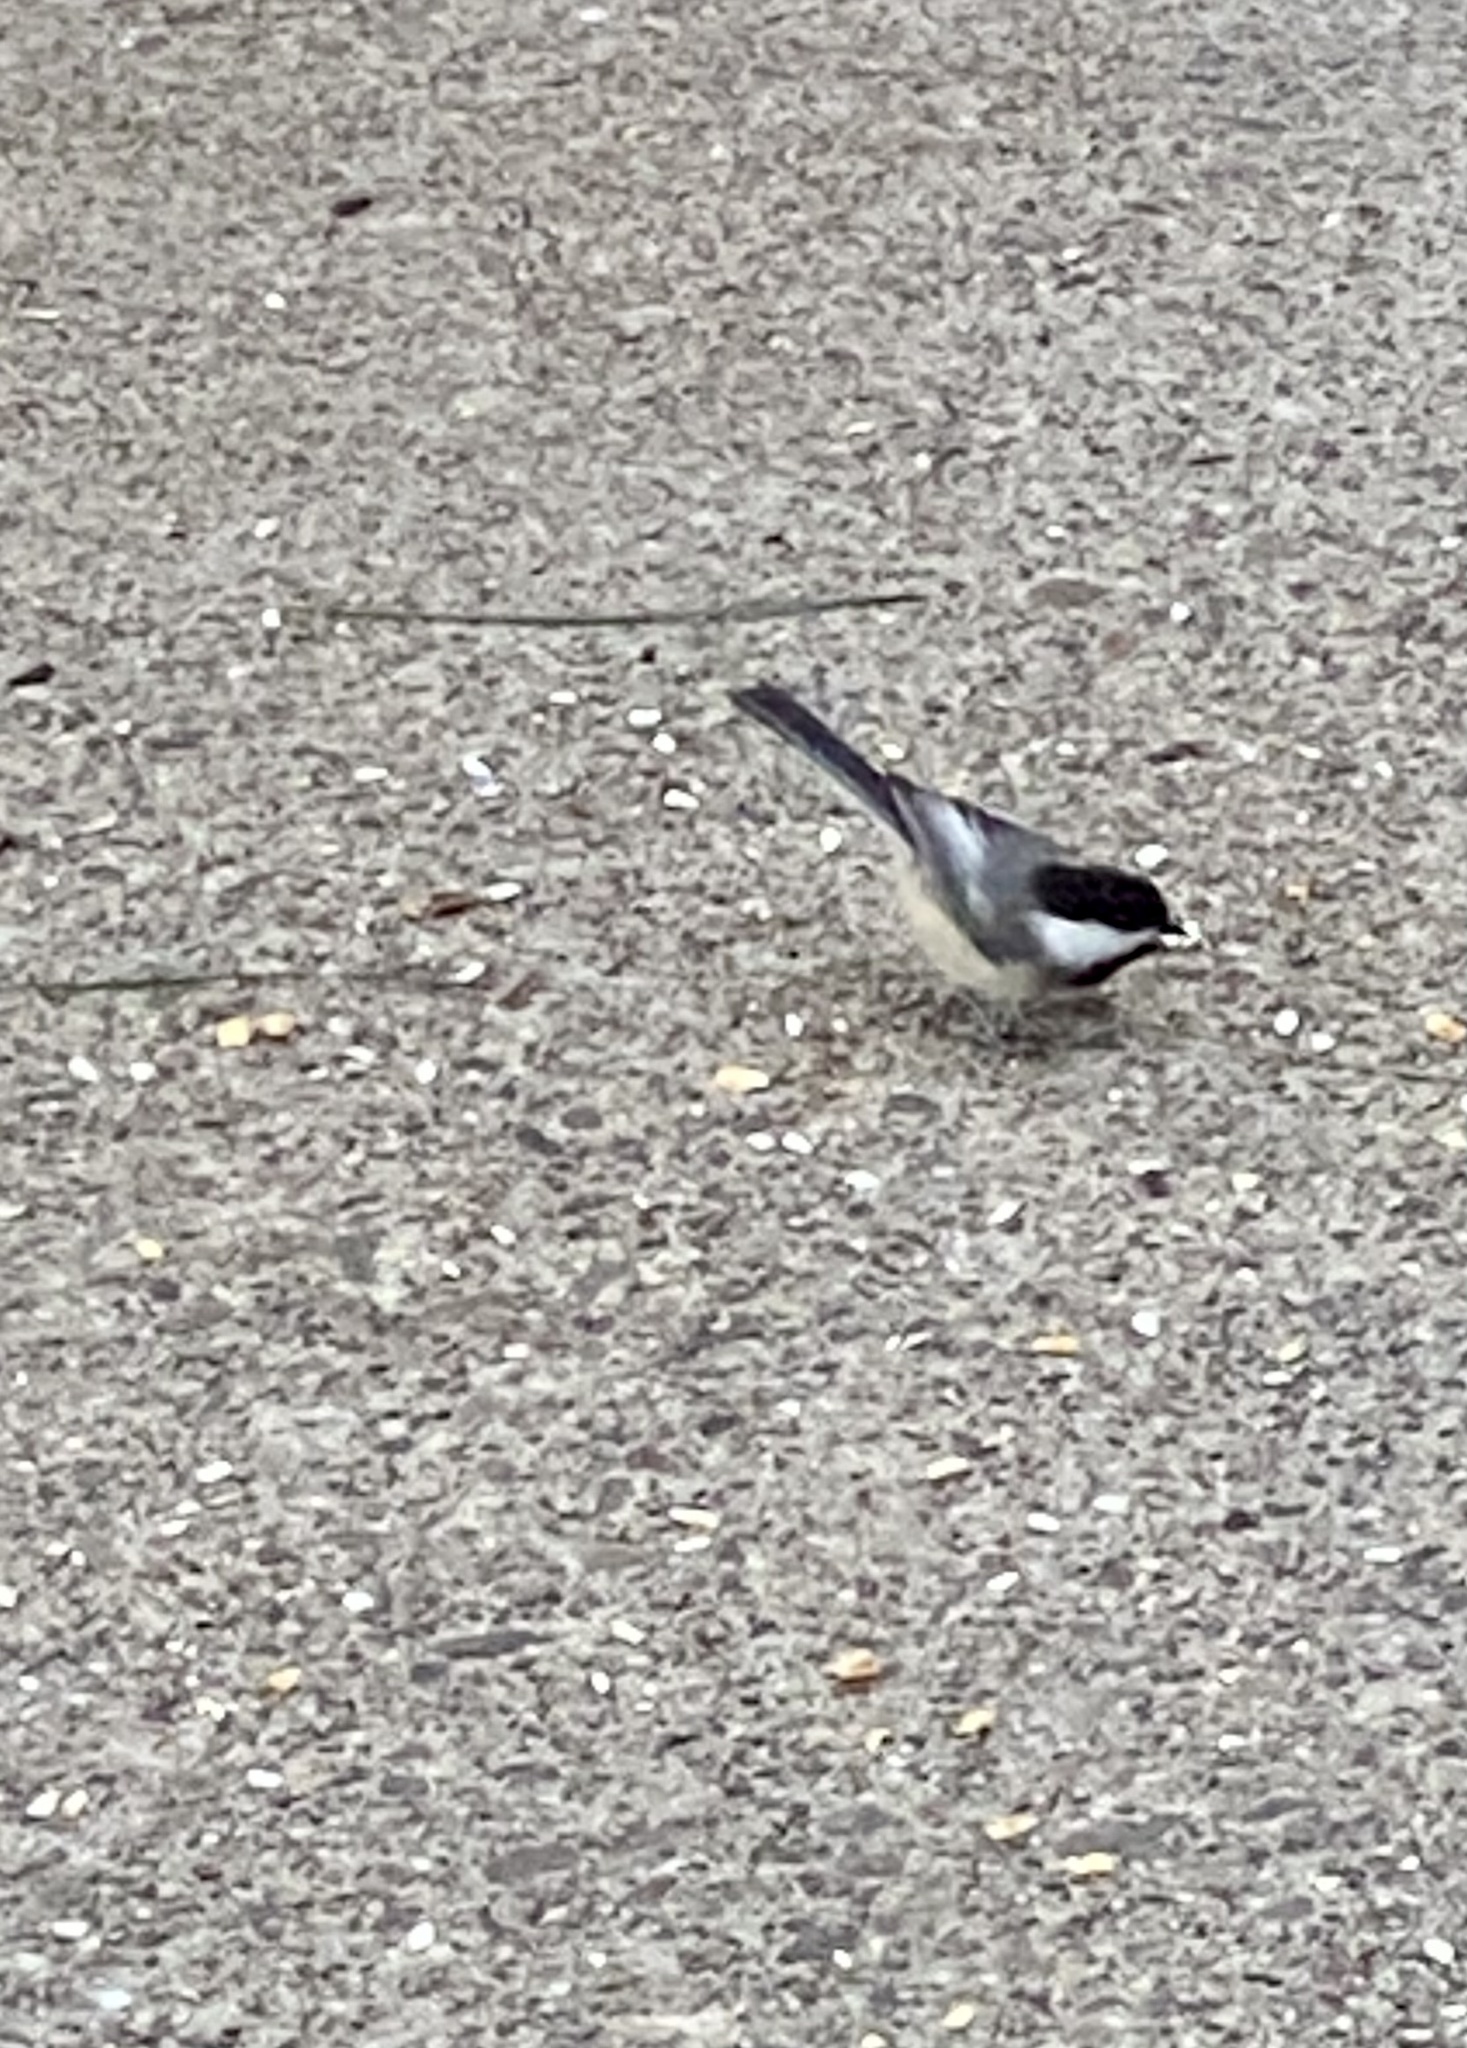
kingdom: Animalia
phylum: Chordata
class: Aves
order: Passeriformes
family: Paridae
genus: Poecile
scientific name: Poecile atricapillus
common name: Black-capped chickadee
